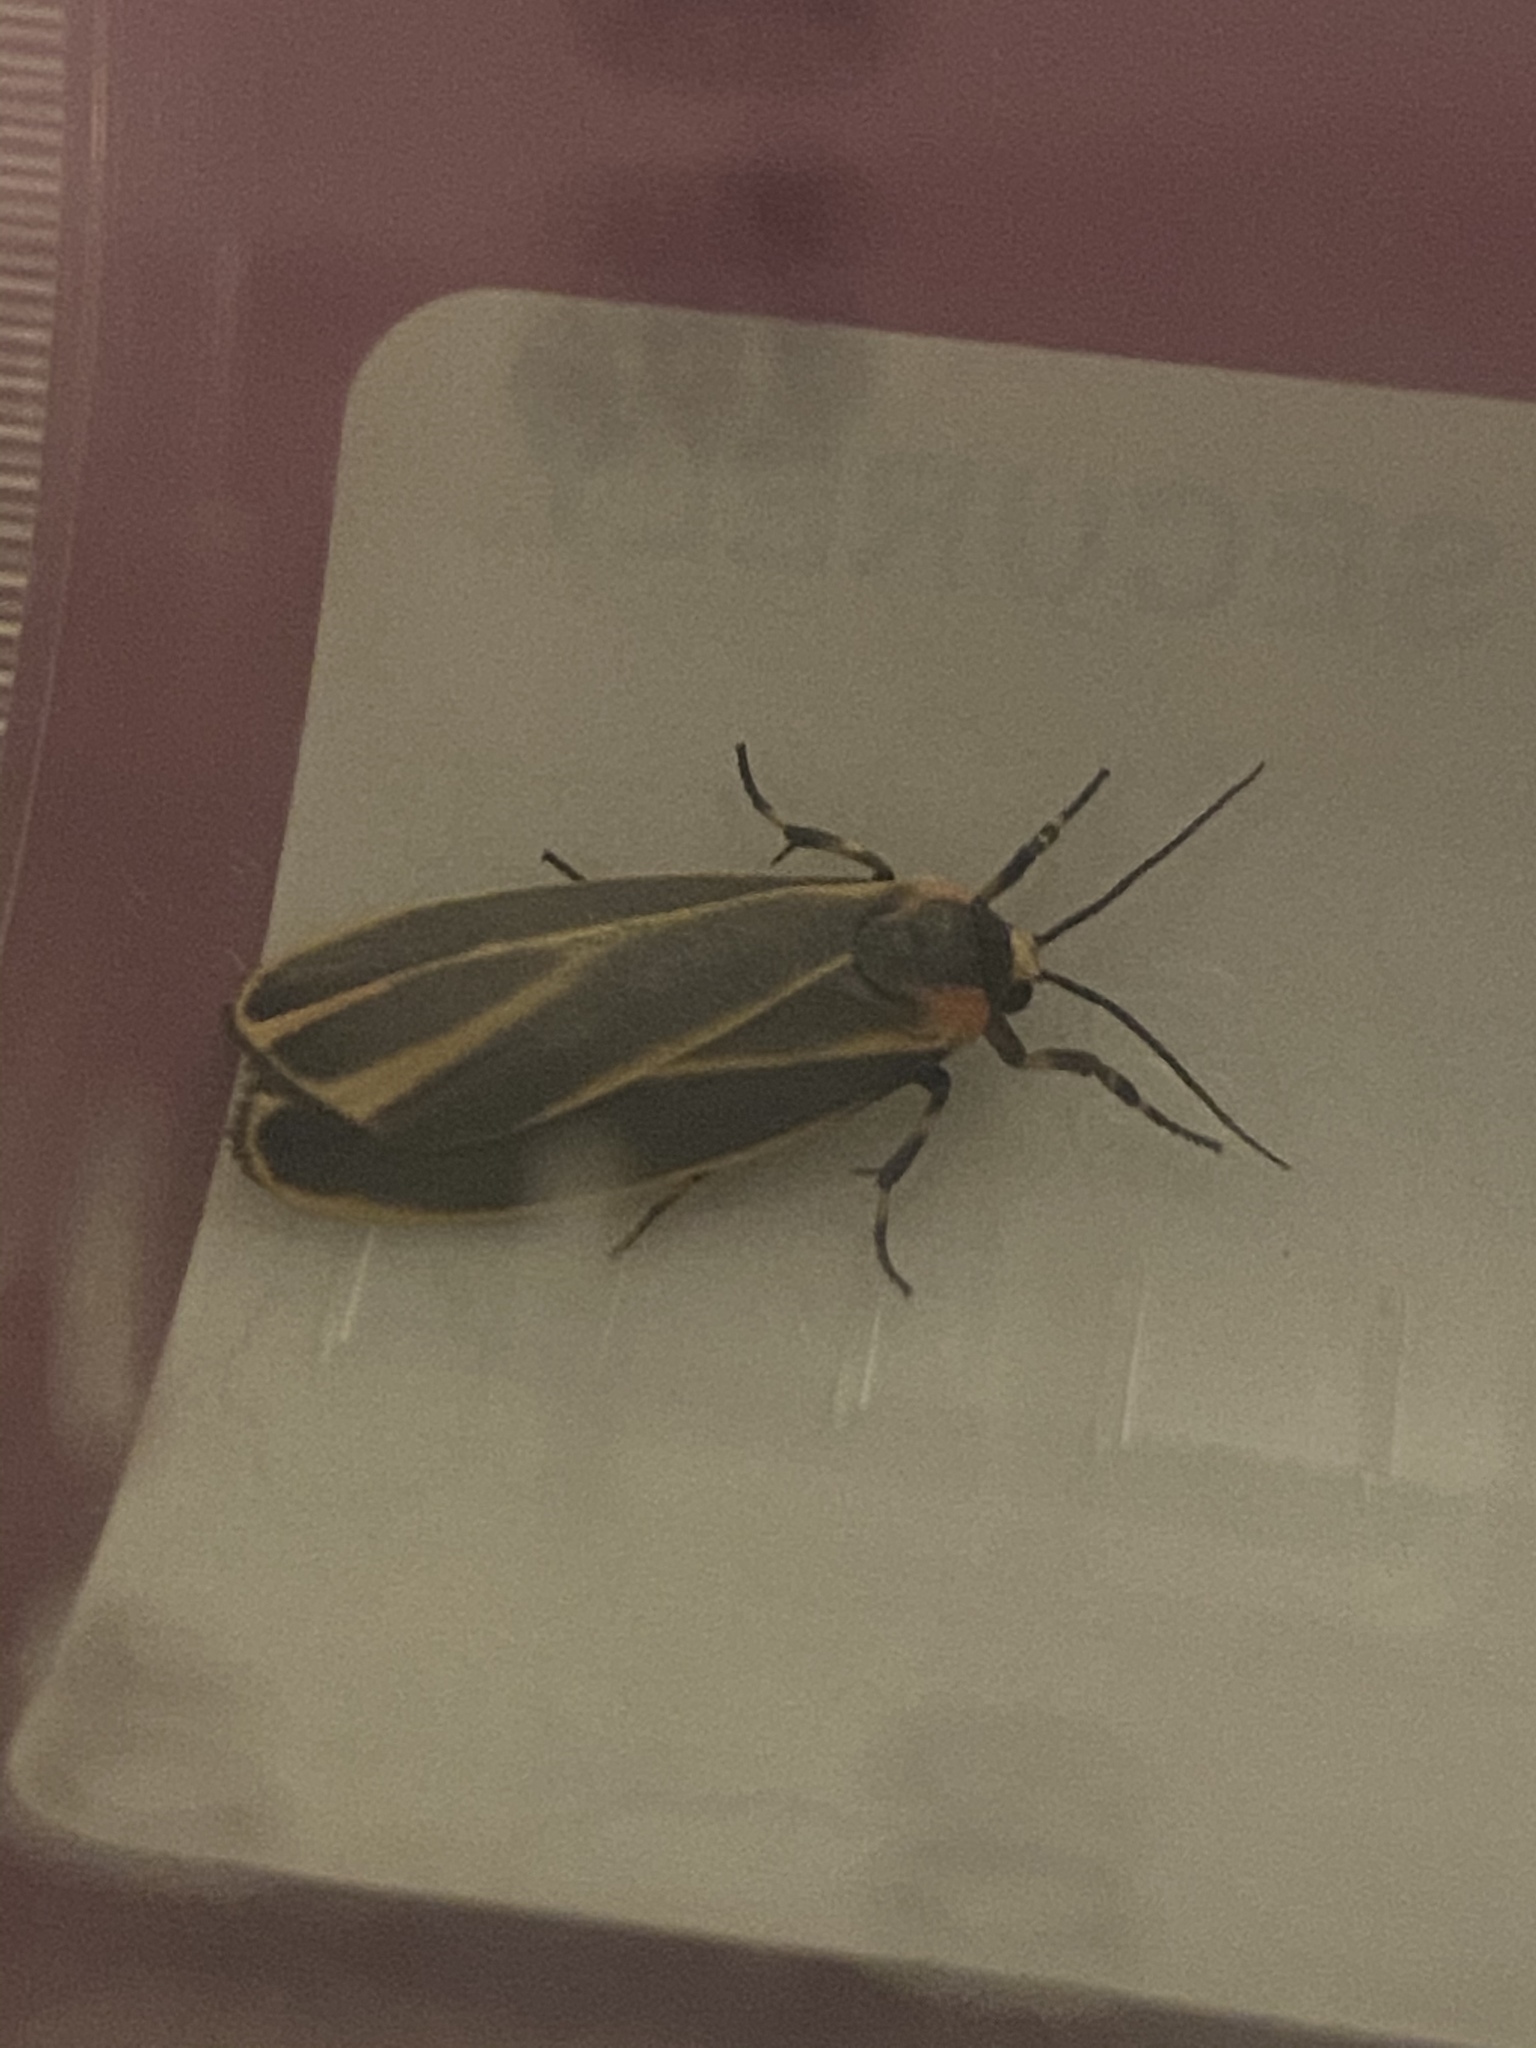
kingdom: Animalia
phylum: Arthropoda
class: Insecta
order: Lepidoptera
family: Erebidae
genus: Hypoprepia
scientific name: Hypoprepia fucosa
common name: Painted lichen moth
